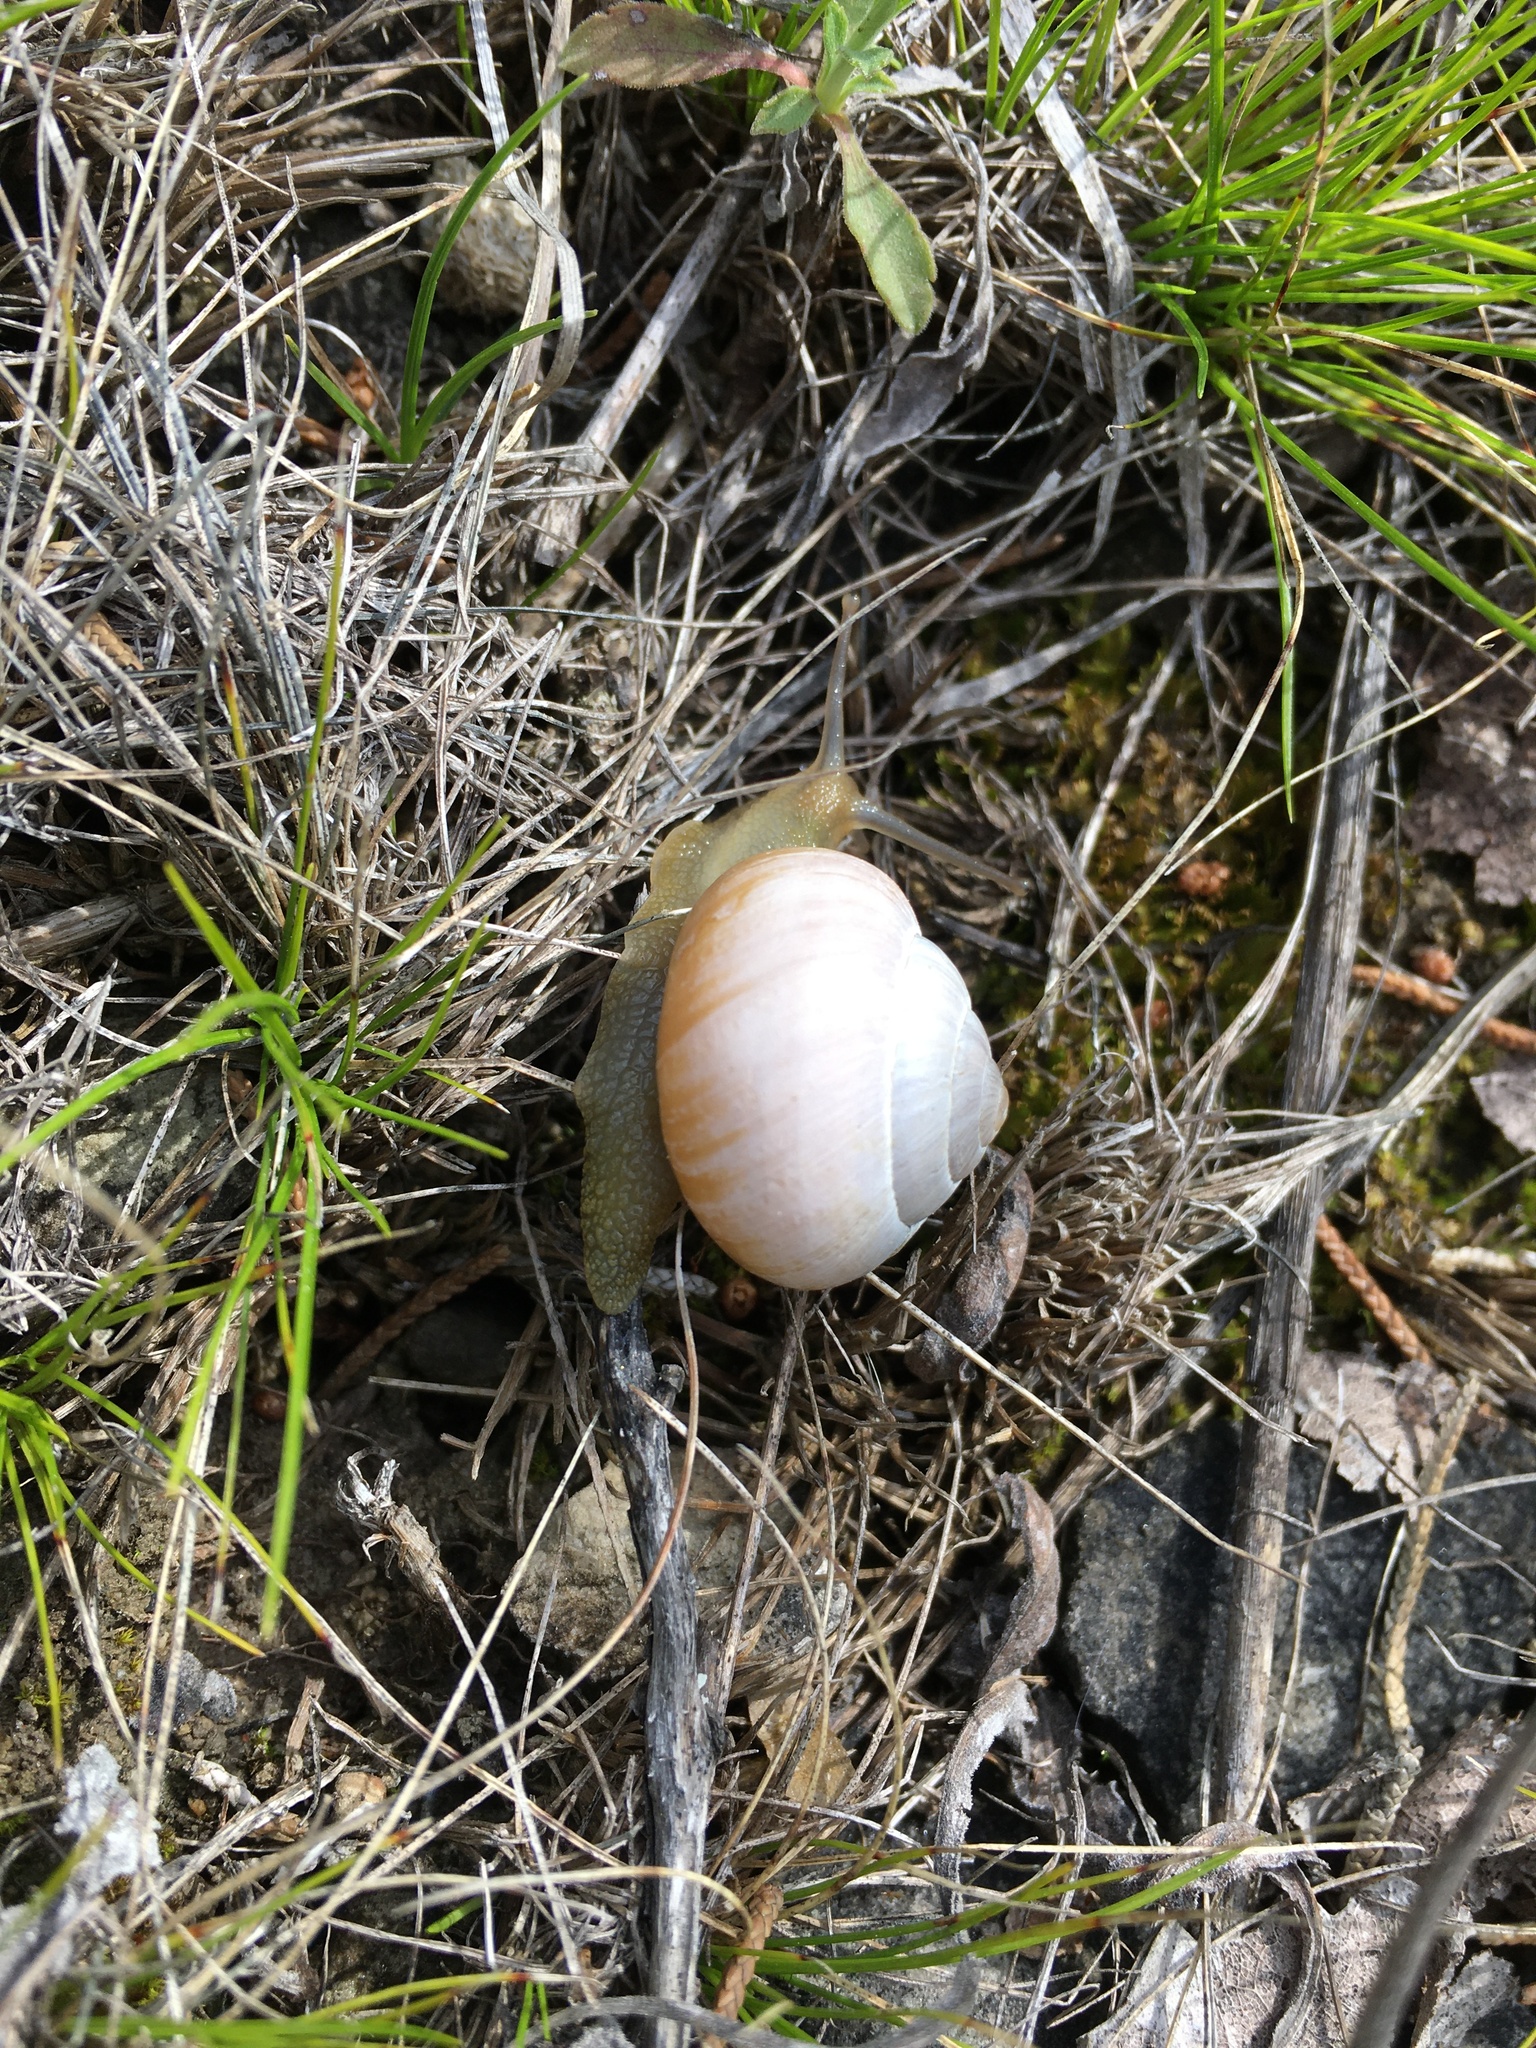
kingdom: Animalia
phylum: Mollusca
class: Gastropoda
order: Stylommatophora
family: Helicidae
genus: Cepaea
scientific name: Cepaea nemoralis
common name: Grovesnail
